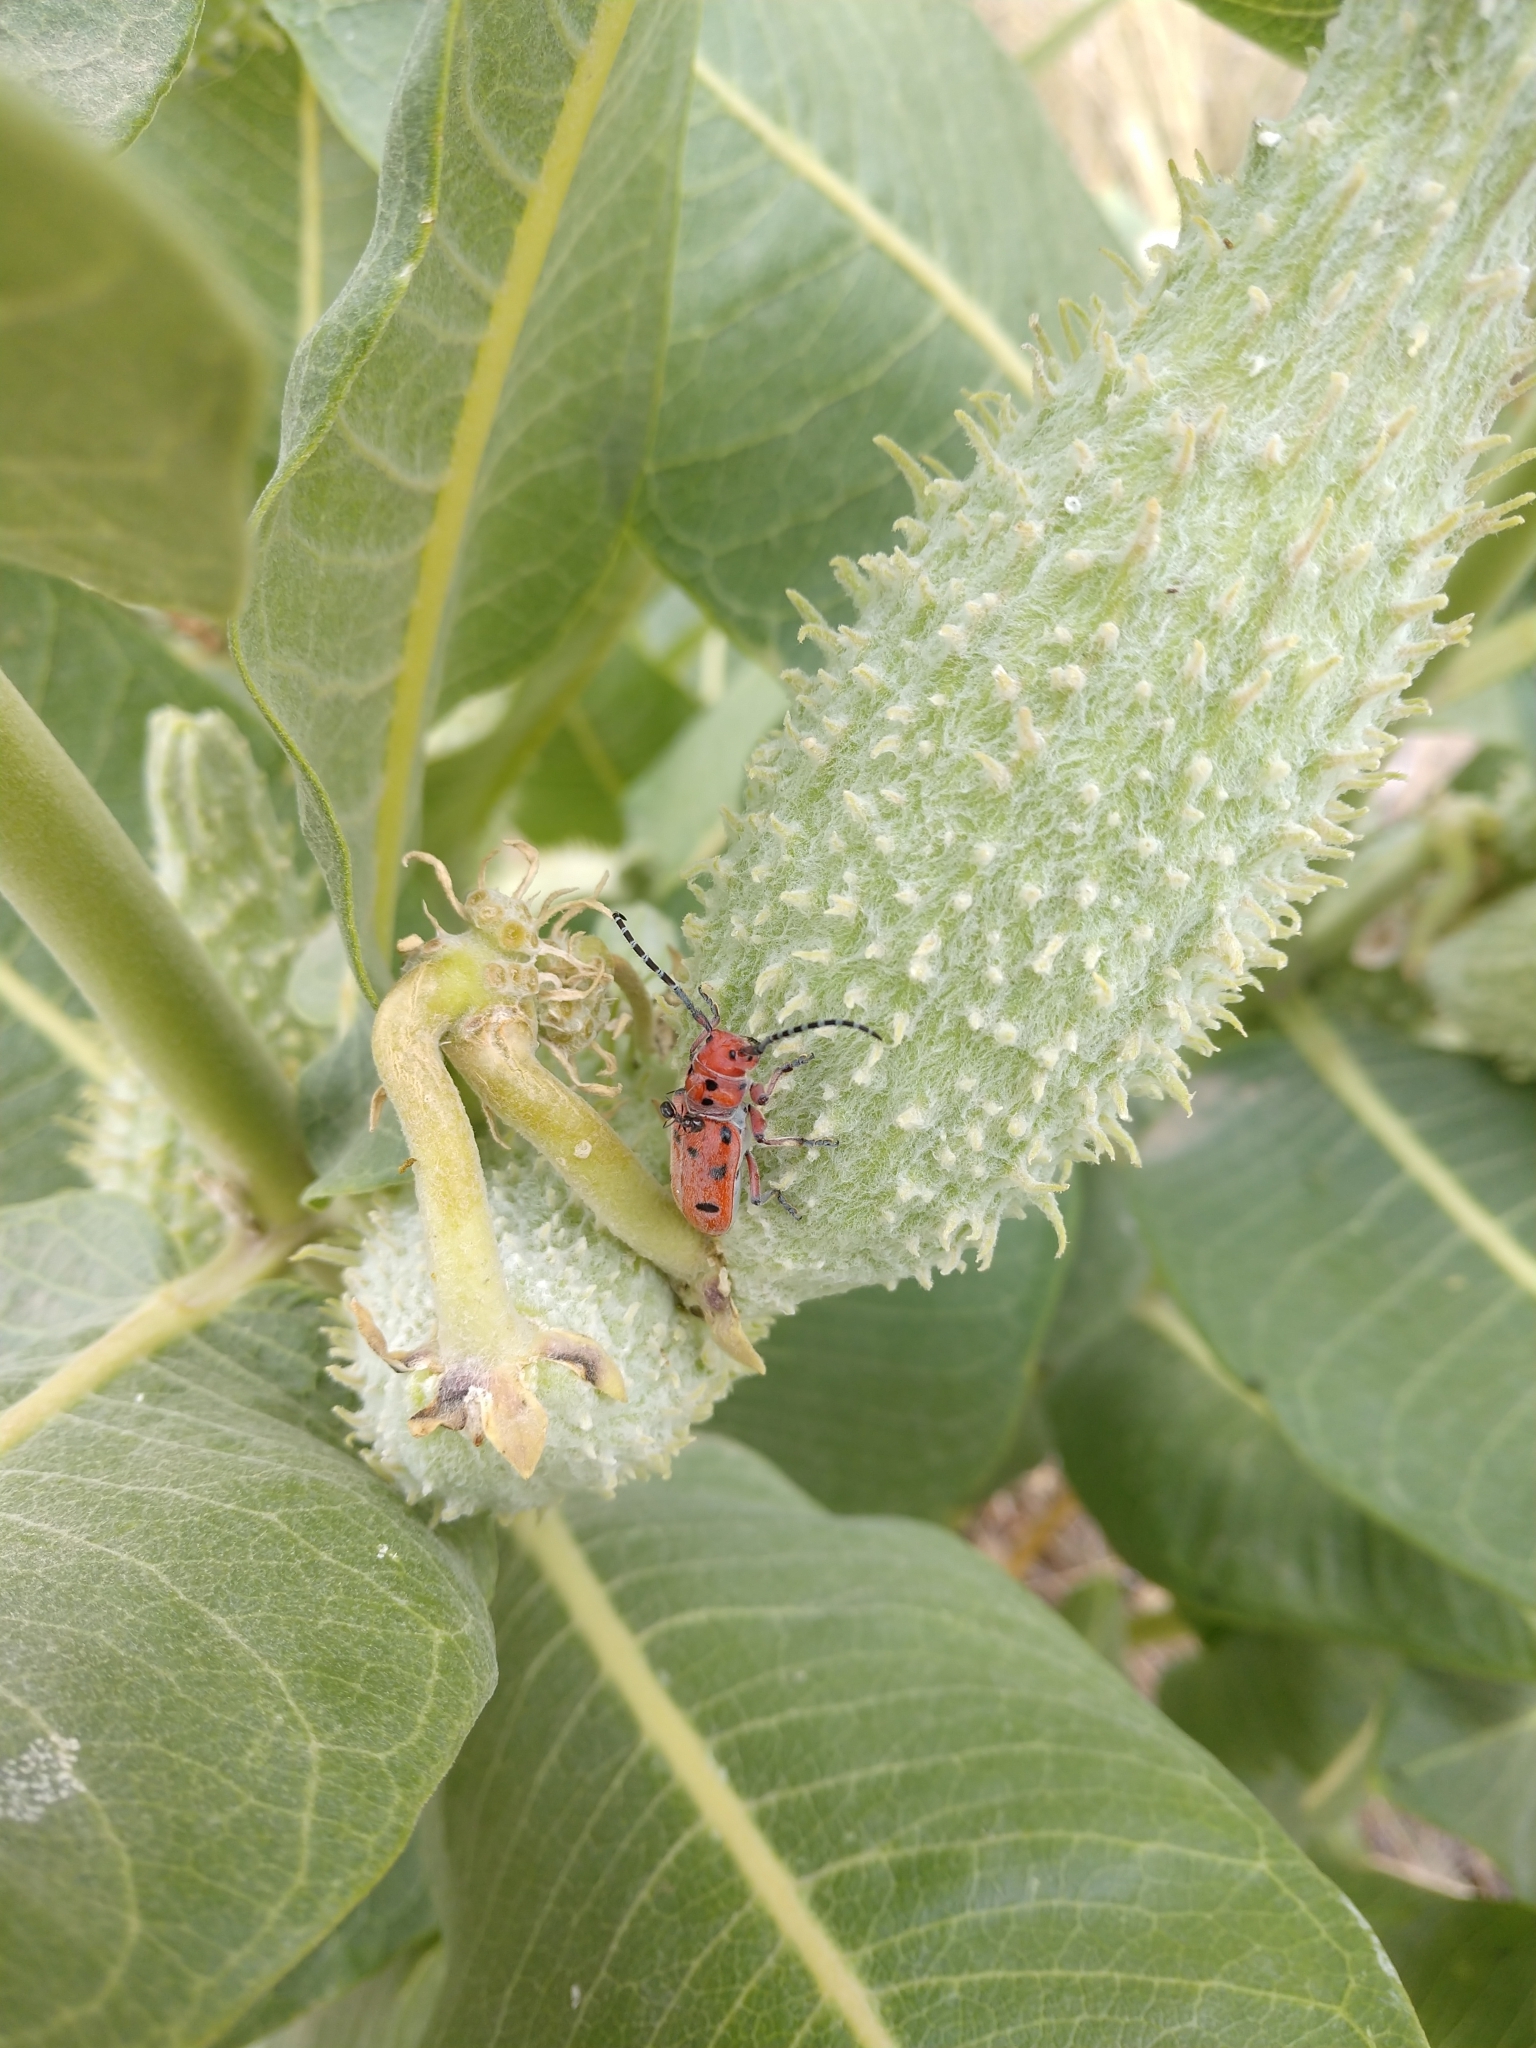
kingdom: Animalia
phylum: Arthropoda
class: Insecta
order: Coleoptera
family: Cerambycidae
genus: Tetraopes
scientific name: Tetraopes femoratus
